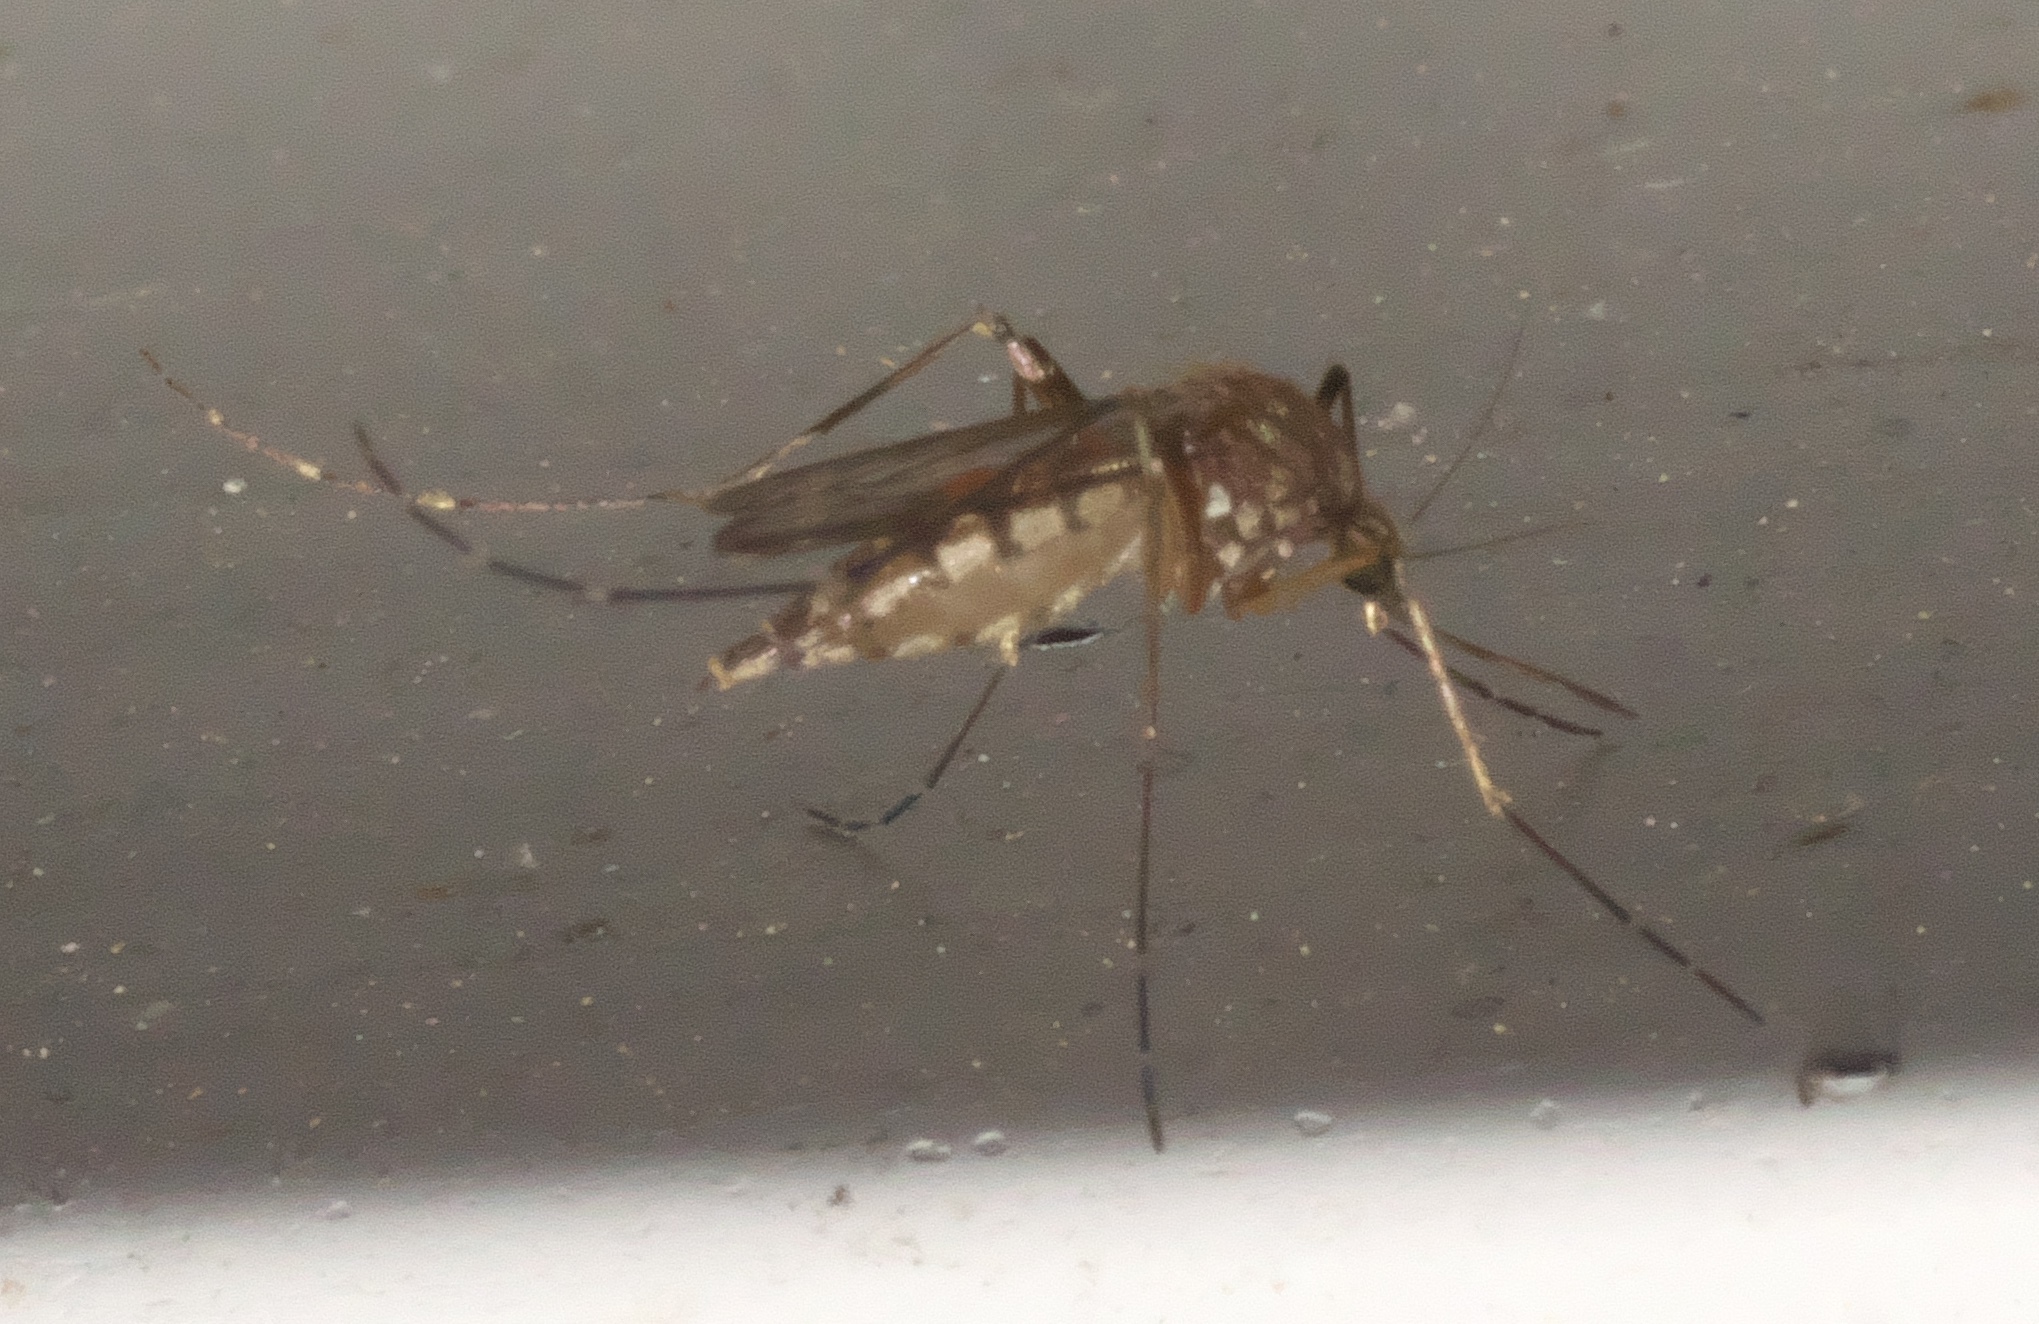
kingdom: Animalia
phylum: Arthropoda
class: Insecta
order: Diptera
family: Culicidae
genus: Aedes
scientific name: Aedes vexans
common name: Inland floodwater mosquito
